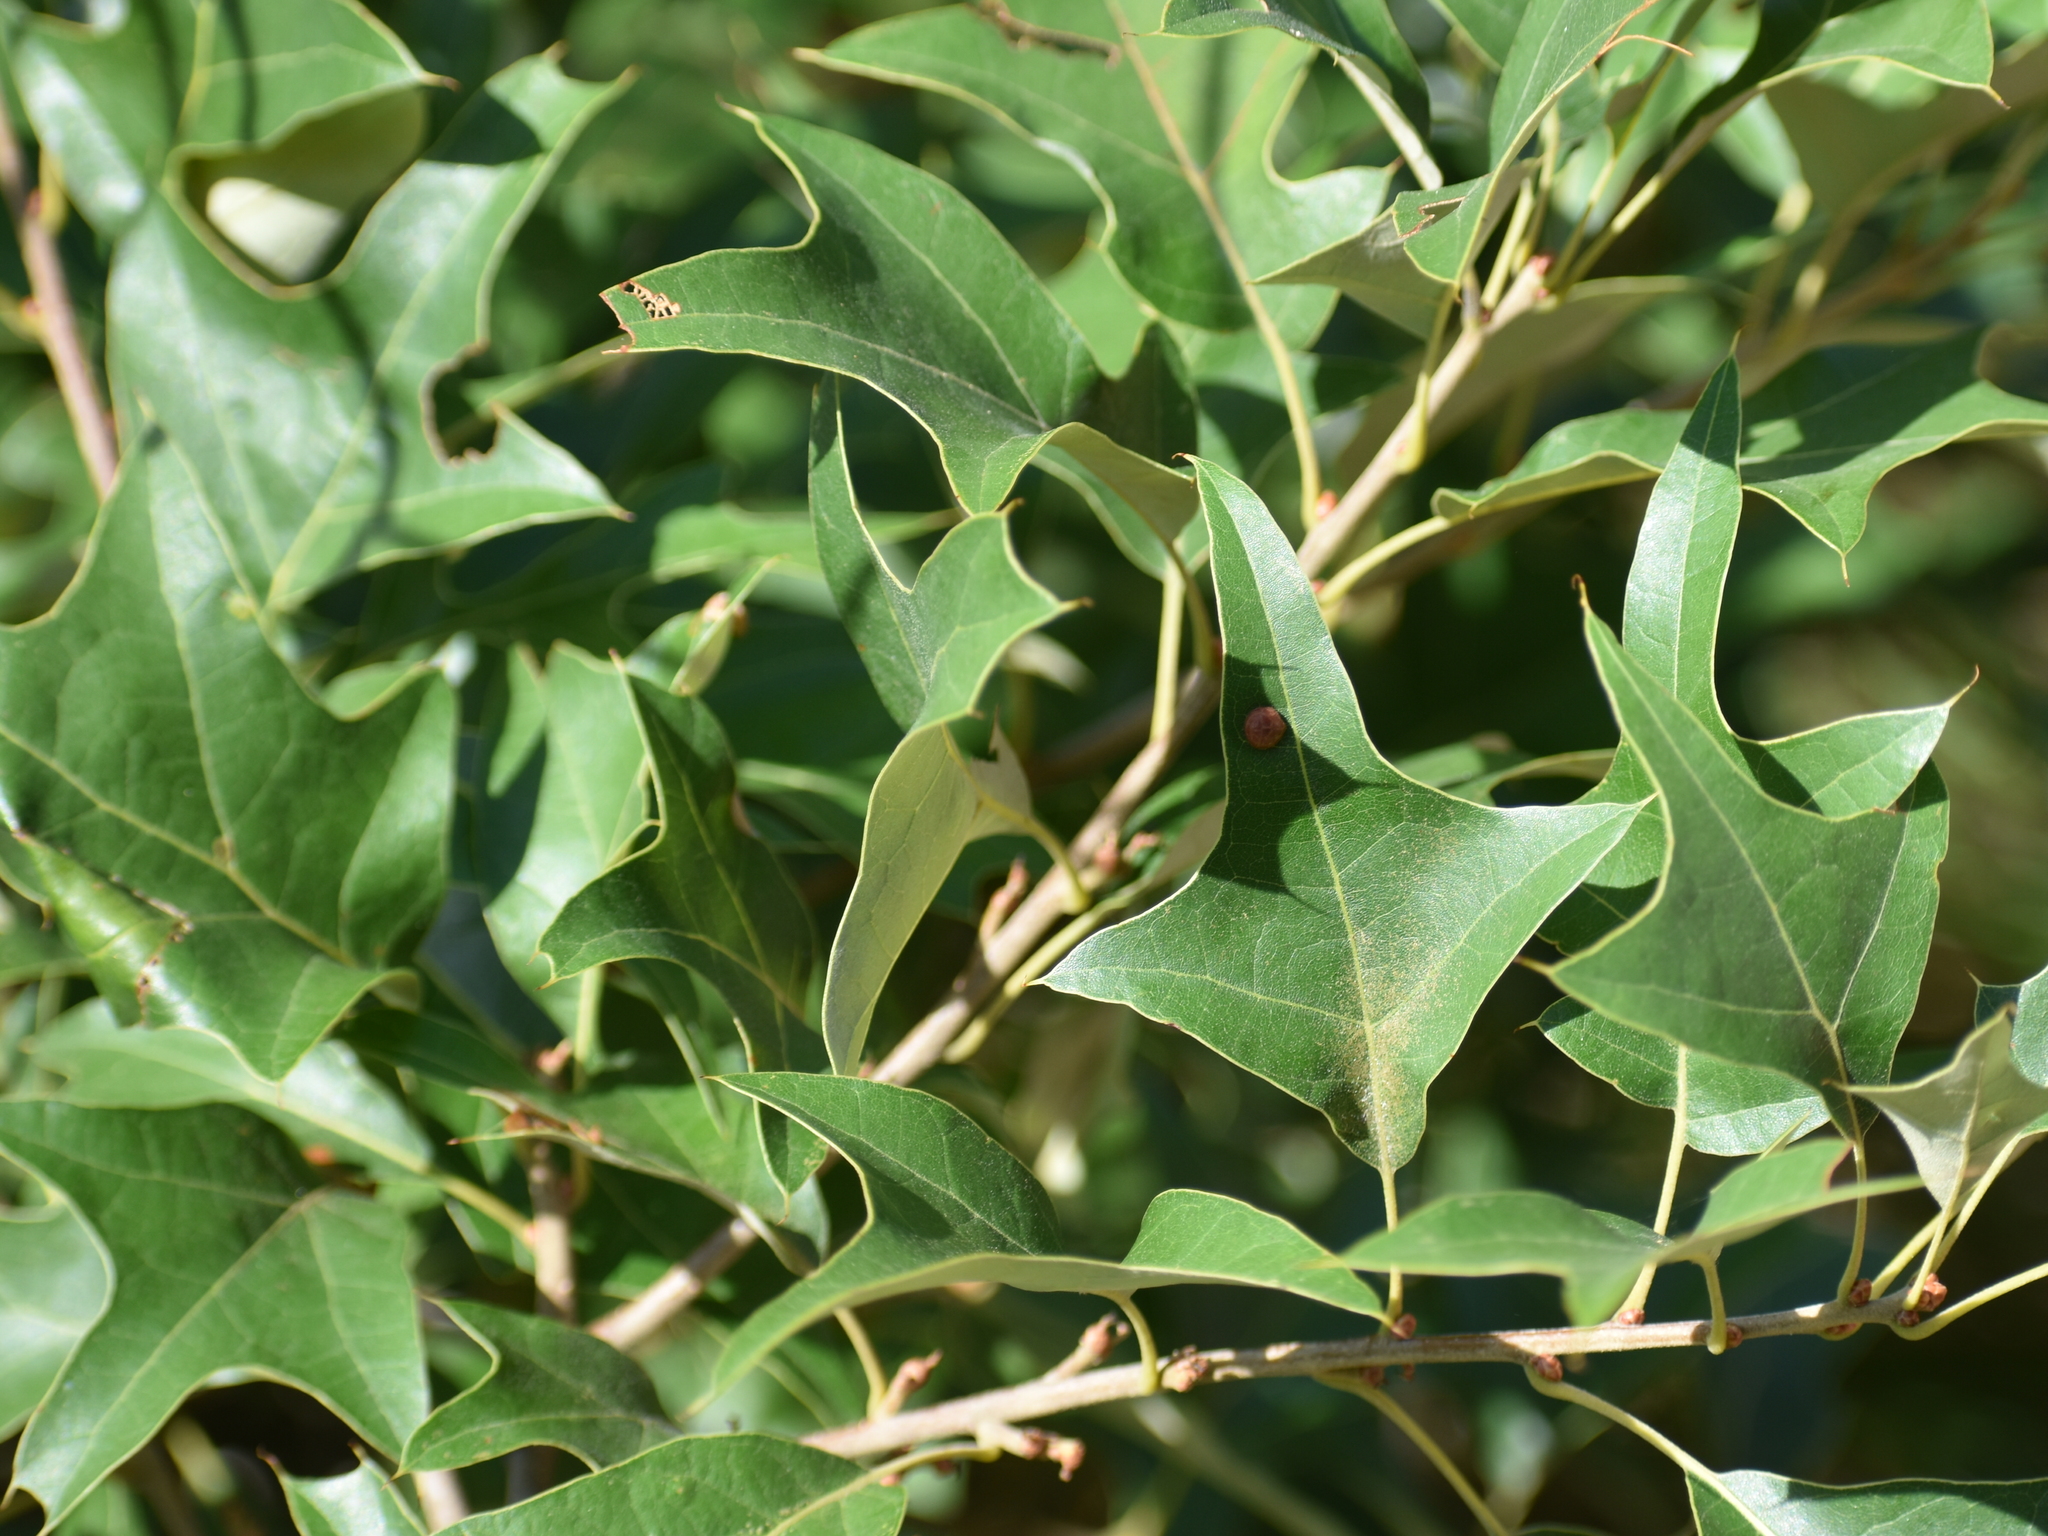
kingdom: Plantae
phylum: Tracheophyta
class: Magnoliopsida
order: Fagales
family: Fagaceae
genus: Quercus
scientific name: Quercus ilicifolia
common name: Bear oak
